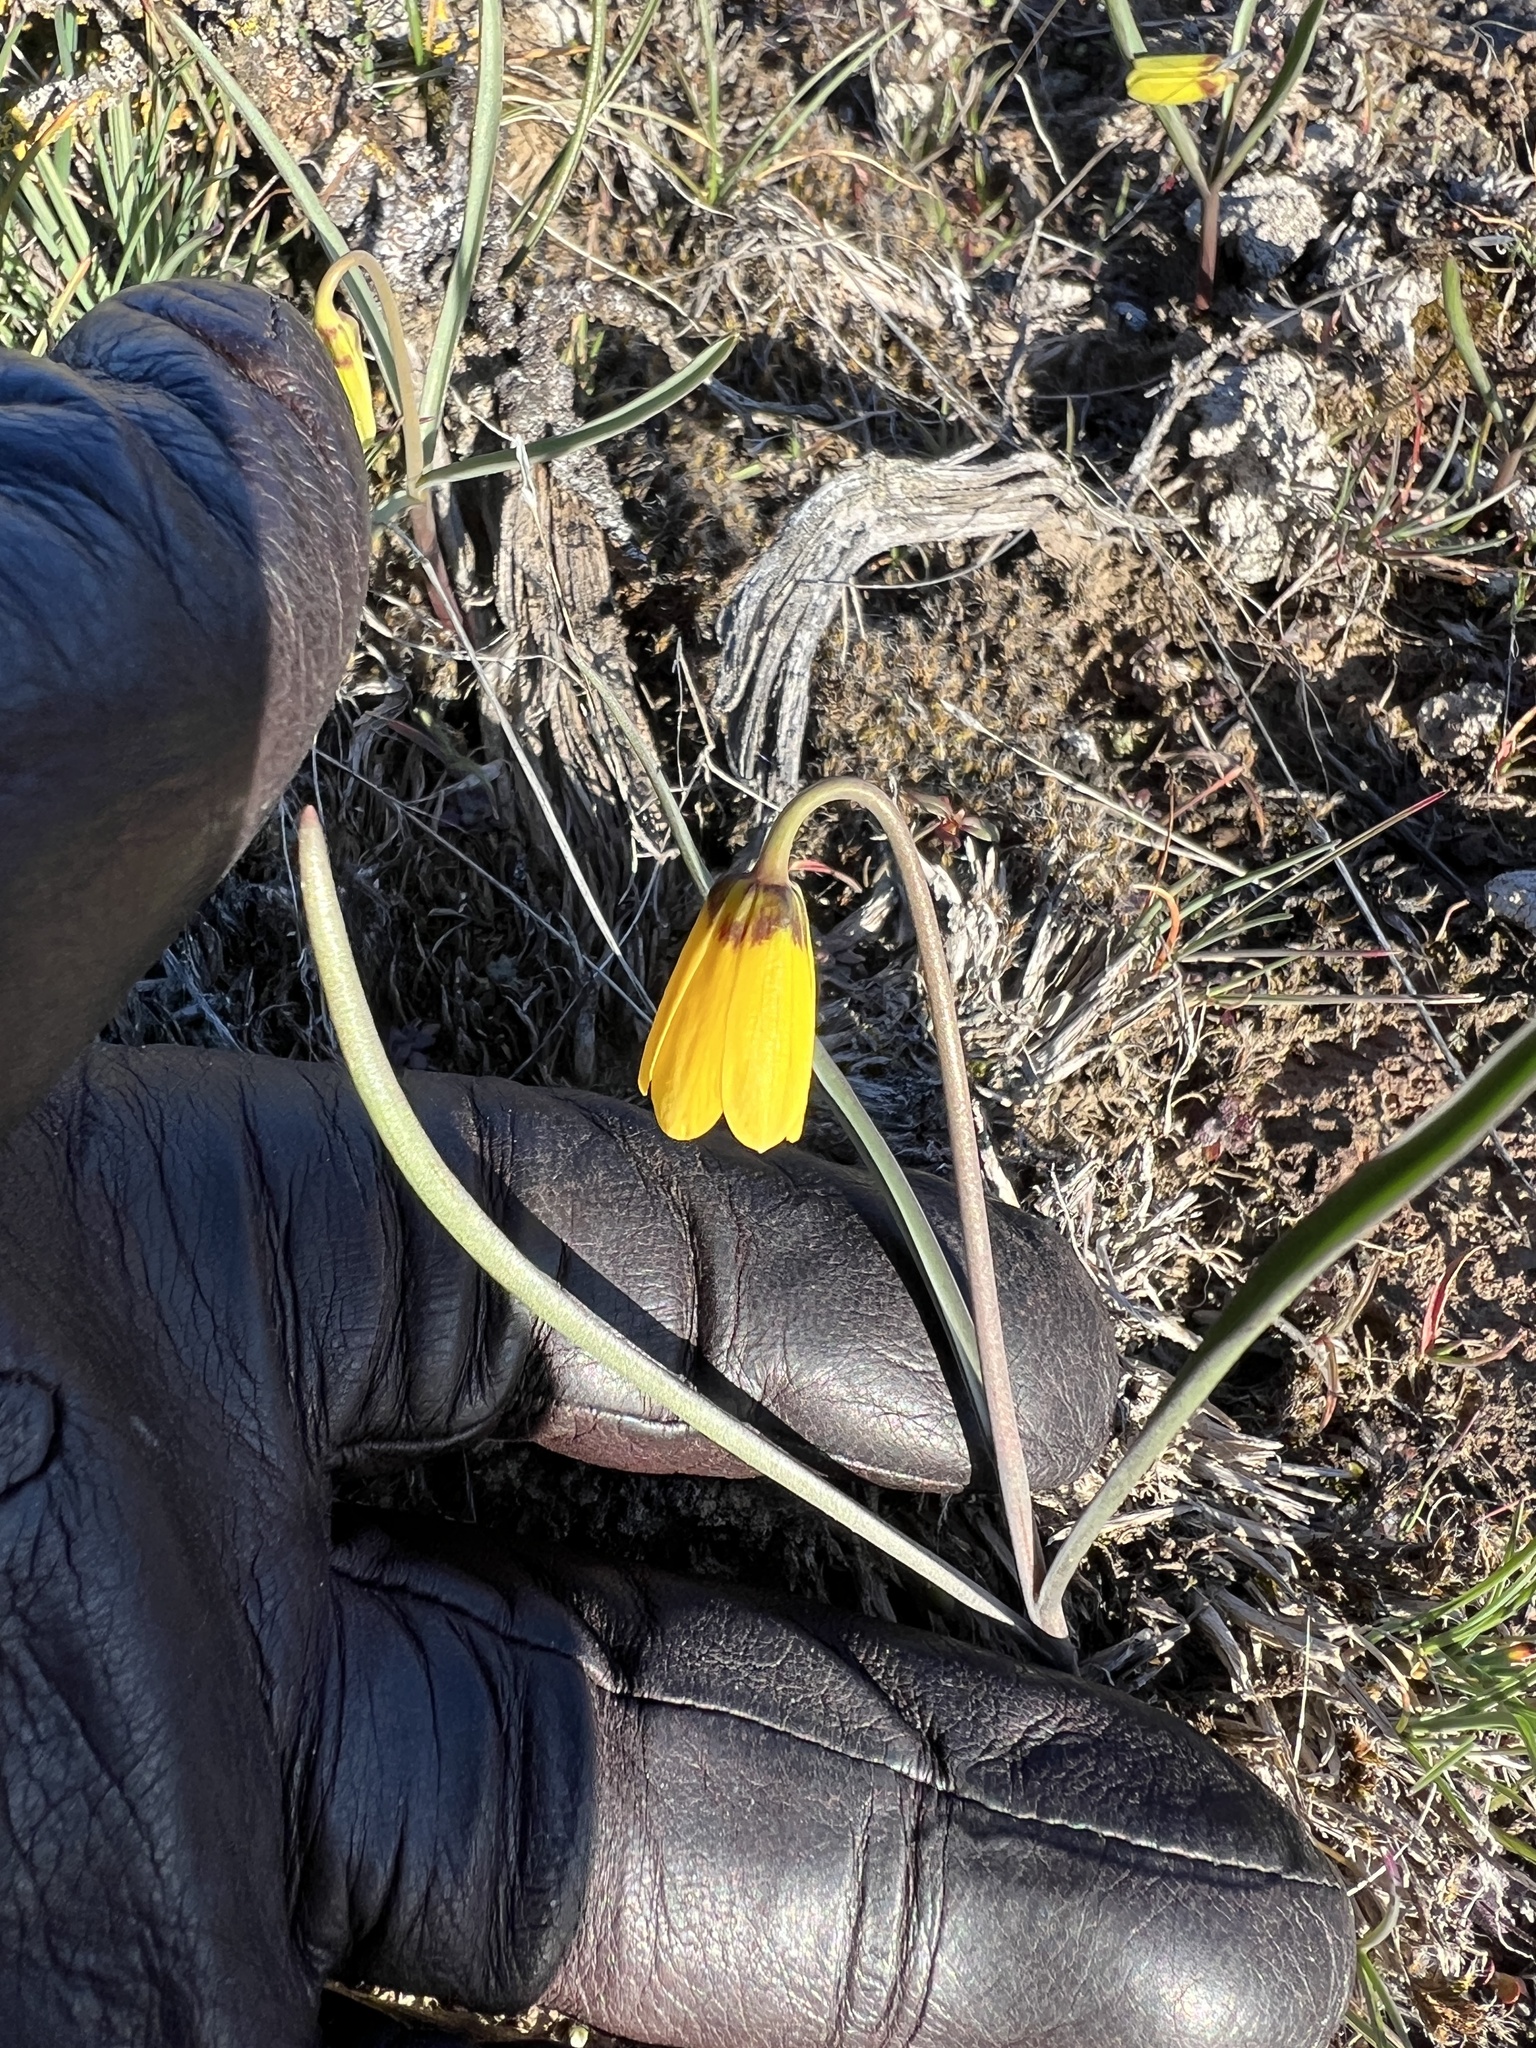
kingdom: Plantae
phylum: Tracheophyta
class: Liliopsida
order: Liliales
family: Liliaceae
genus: Fritillaria
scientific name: Fritillaria pudica
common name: Yellow fritillary
